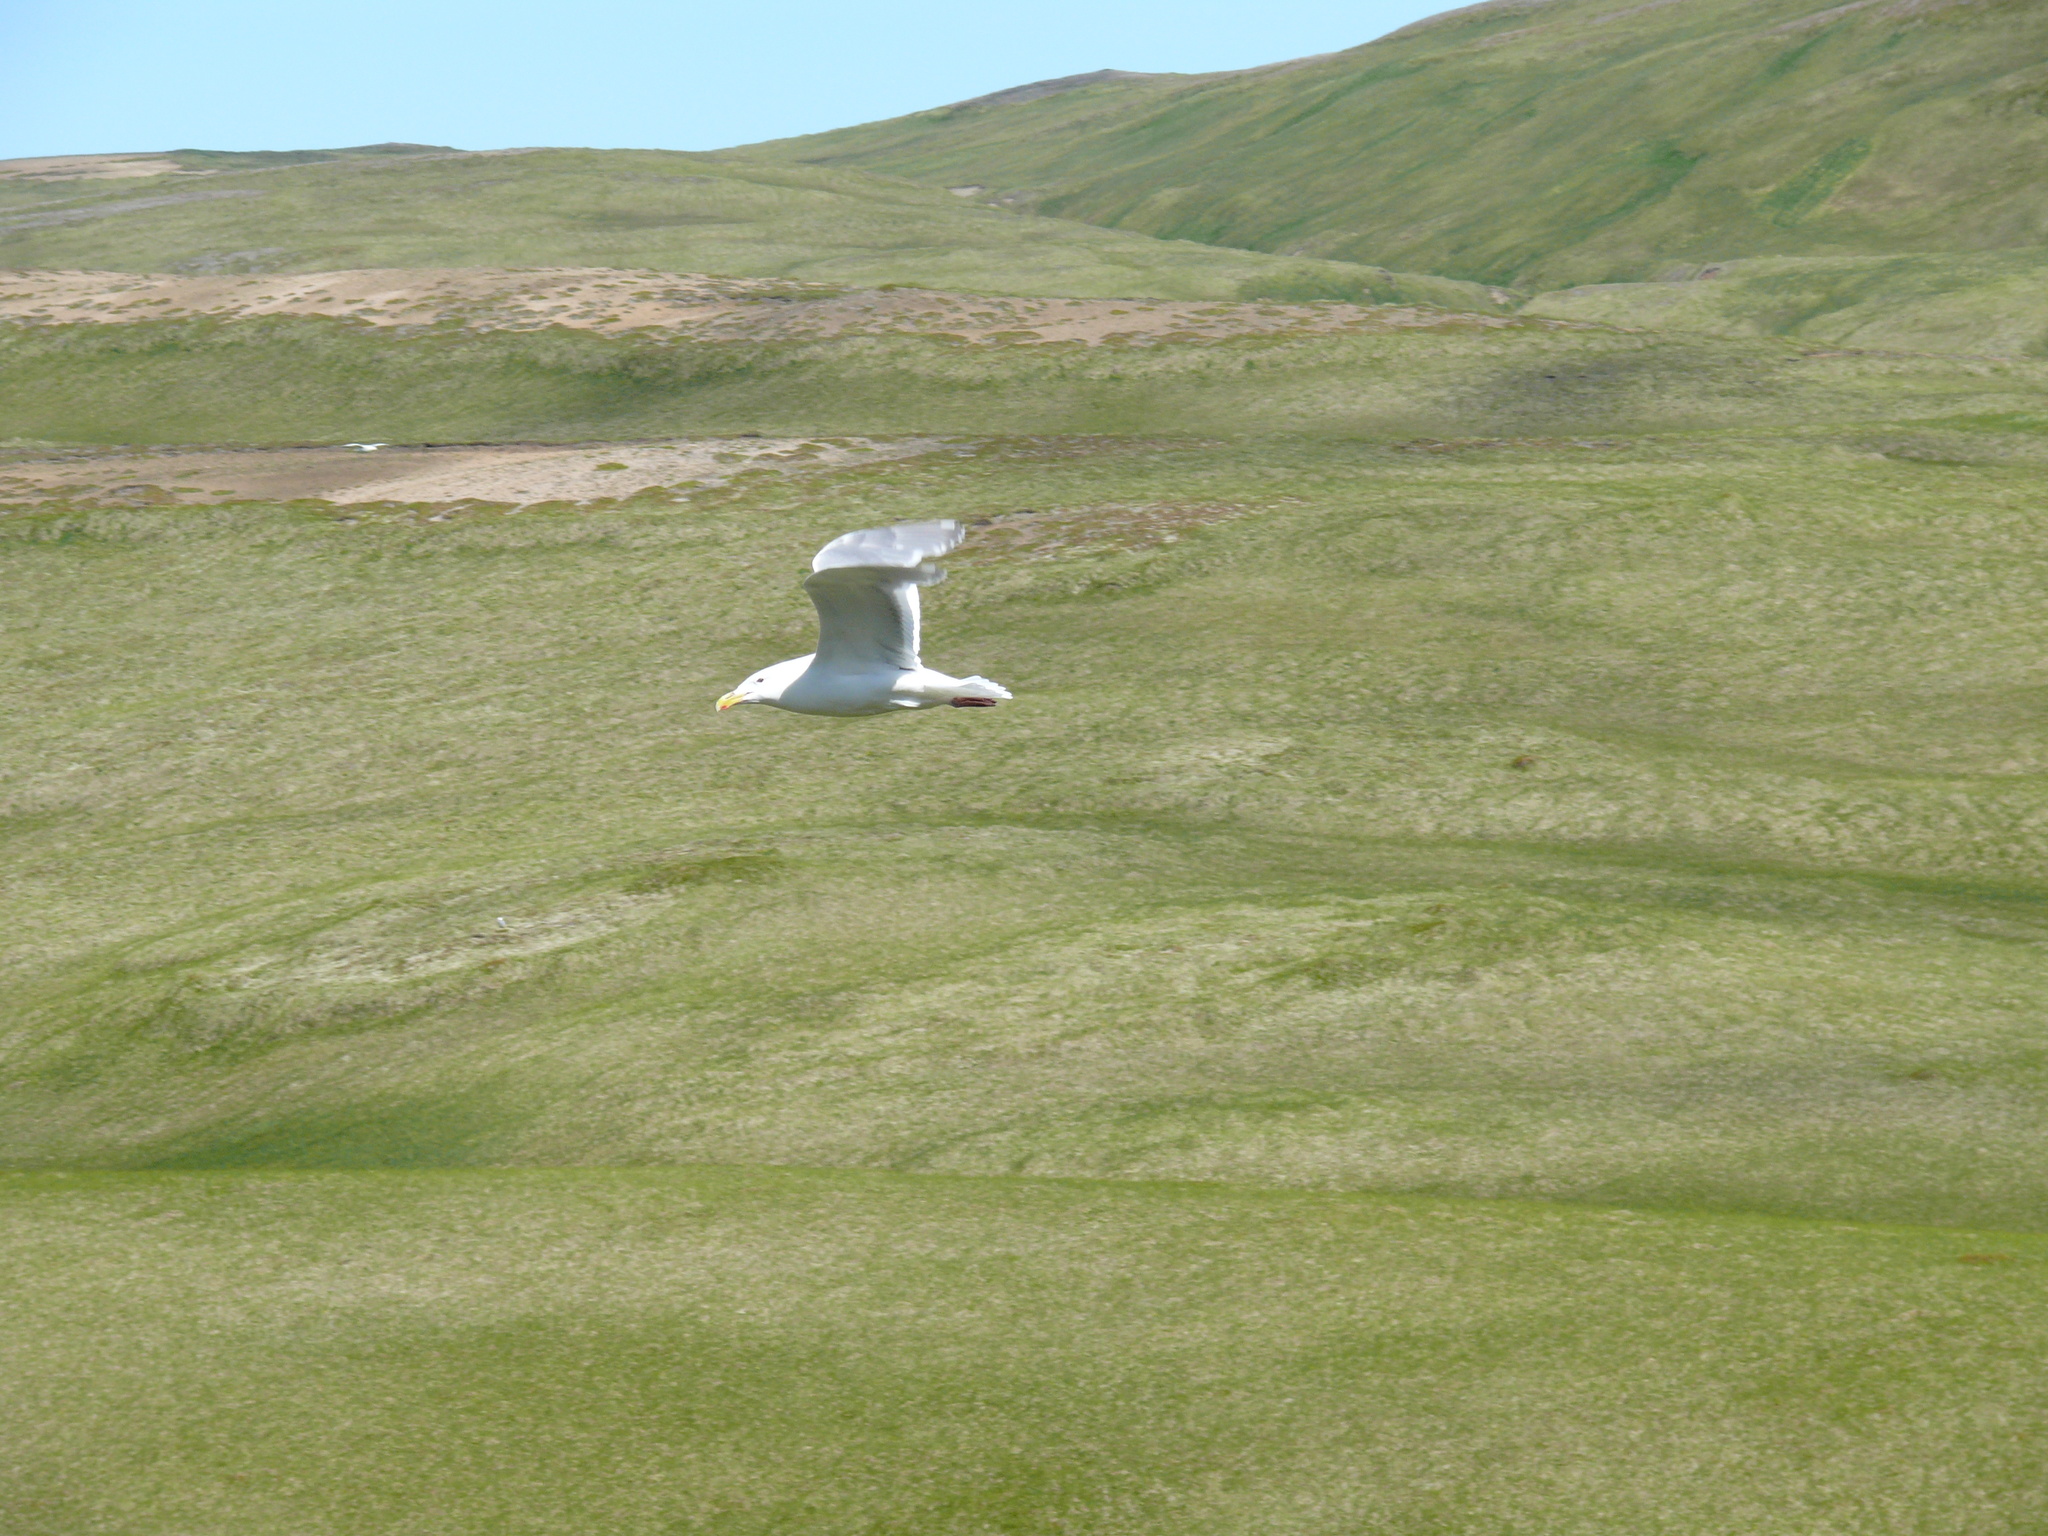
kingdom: Animalia
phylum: Chordata
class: Aves
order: Charadriiformes
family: Laridae
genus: Larus
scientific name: Larus glaucescens
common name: Glaucous-winged gull
